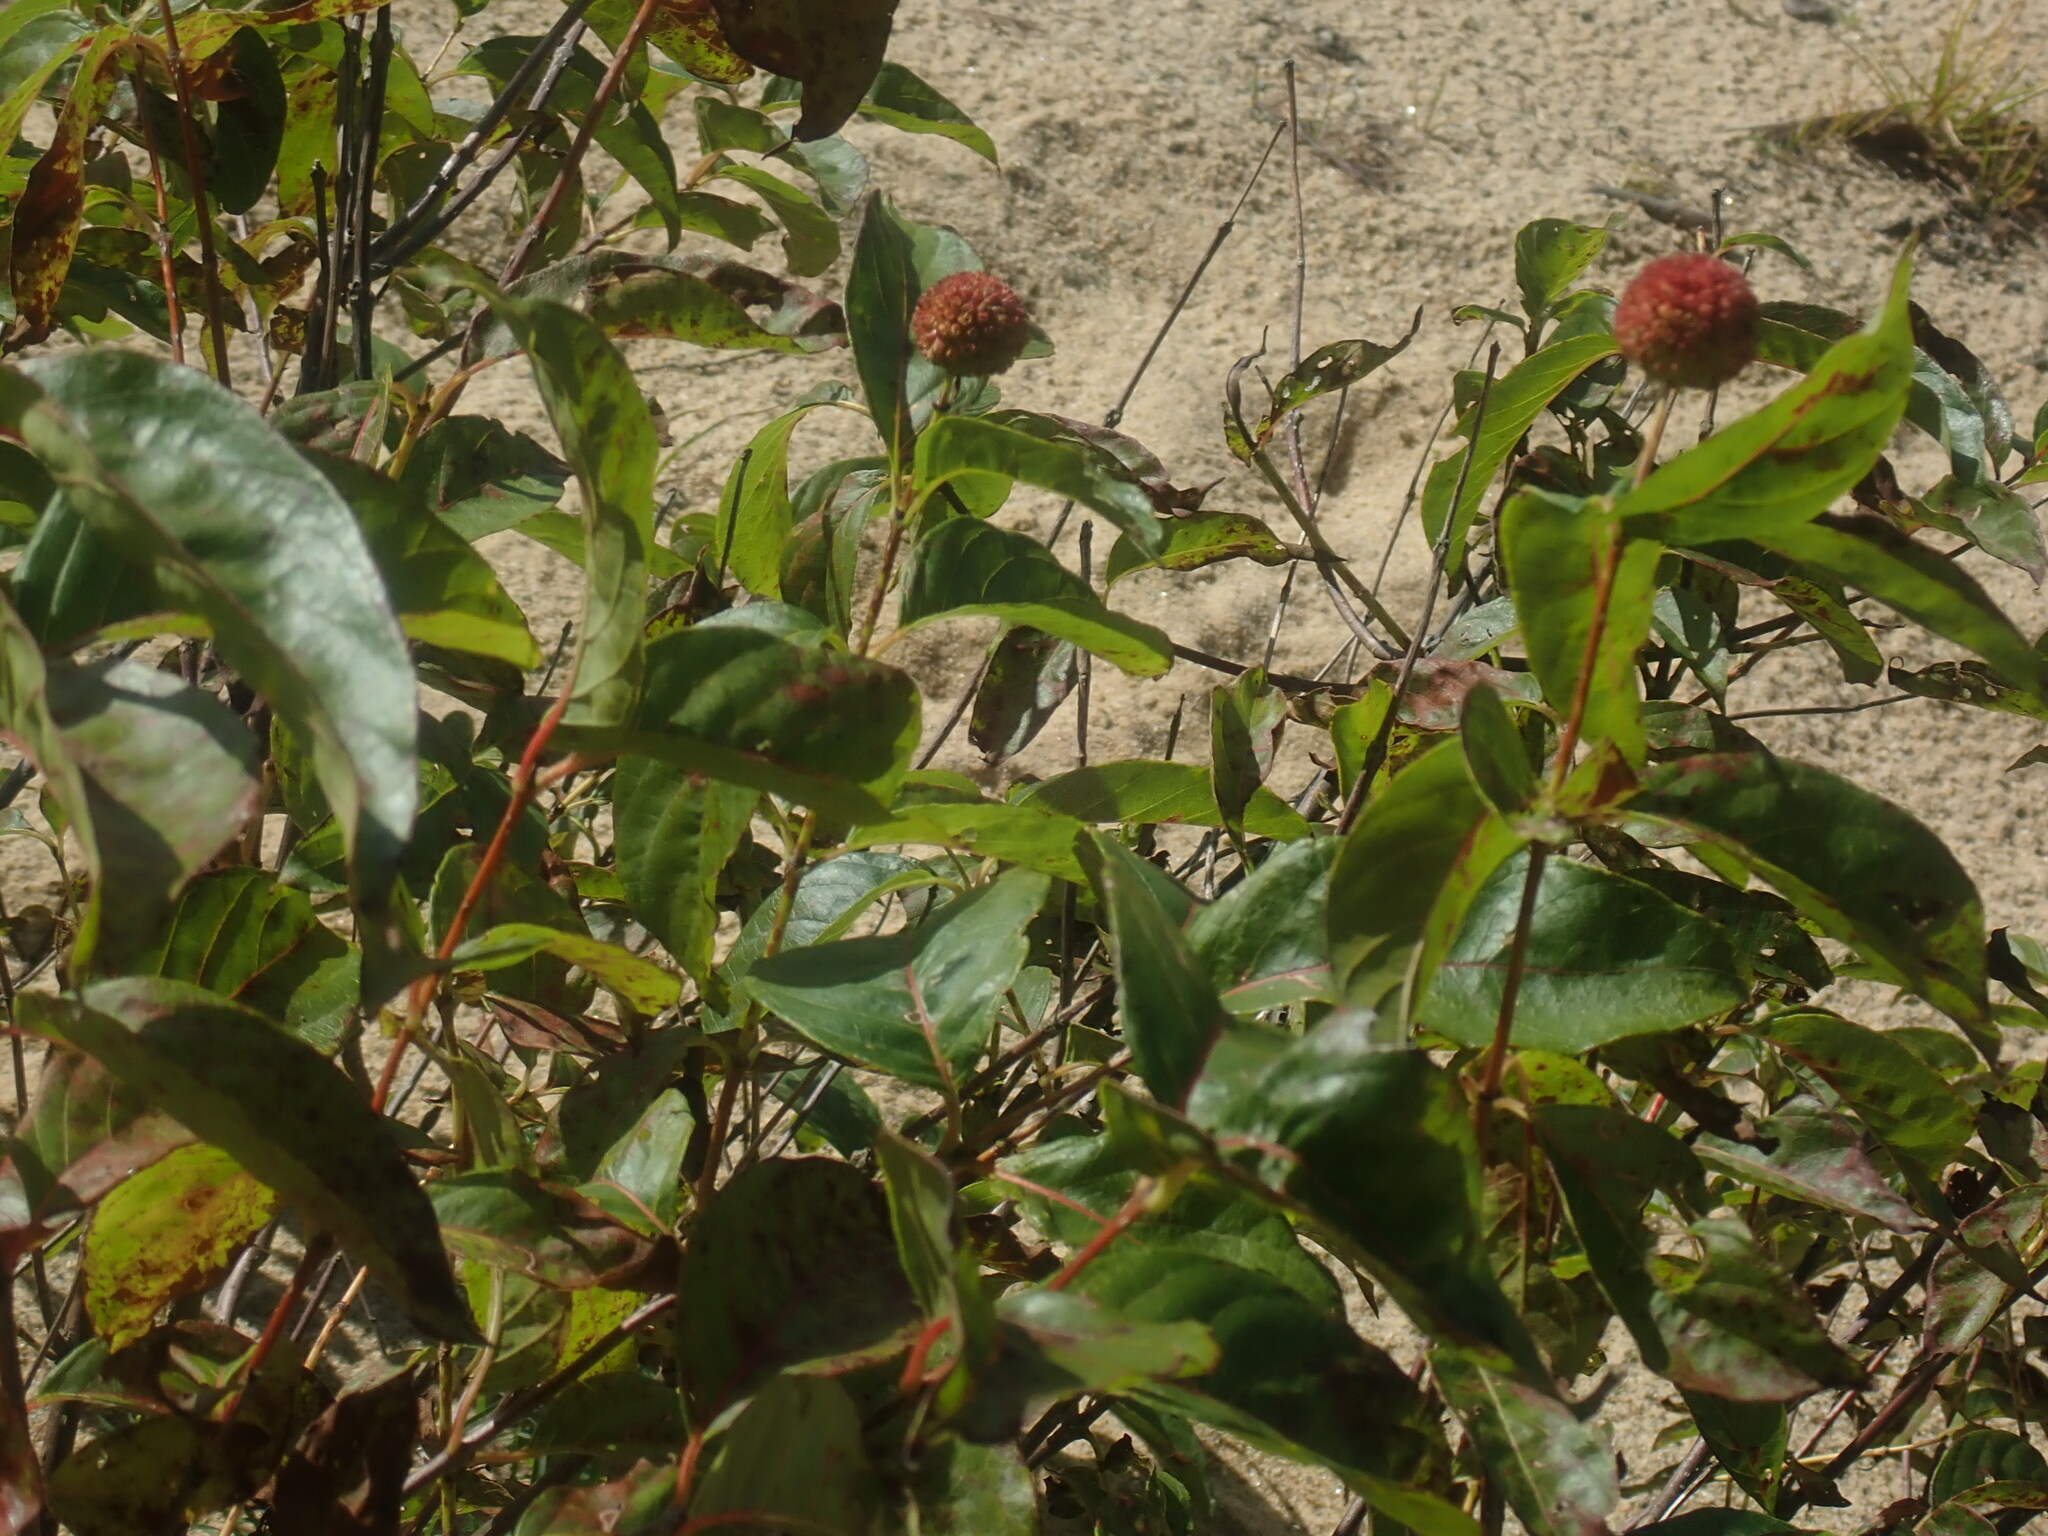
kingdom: Plantae
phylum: Tracheophyta
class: Magnoliopsida
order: Gentianales
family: Rubiaceae
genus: Cephalanthus
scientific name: Cephalanthus occidentalis
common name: Button-willow
